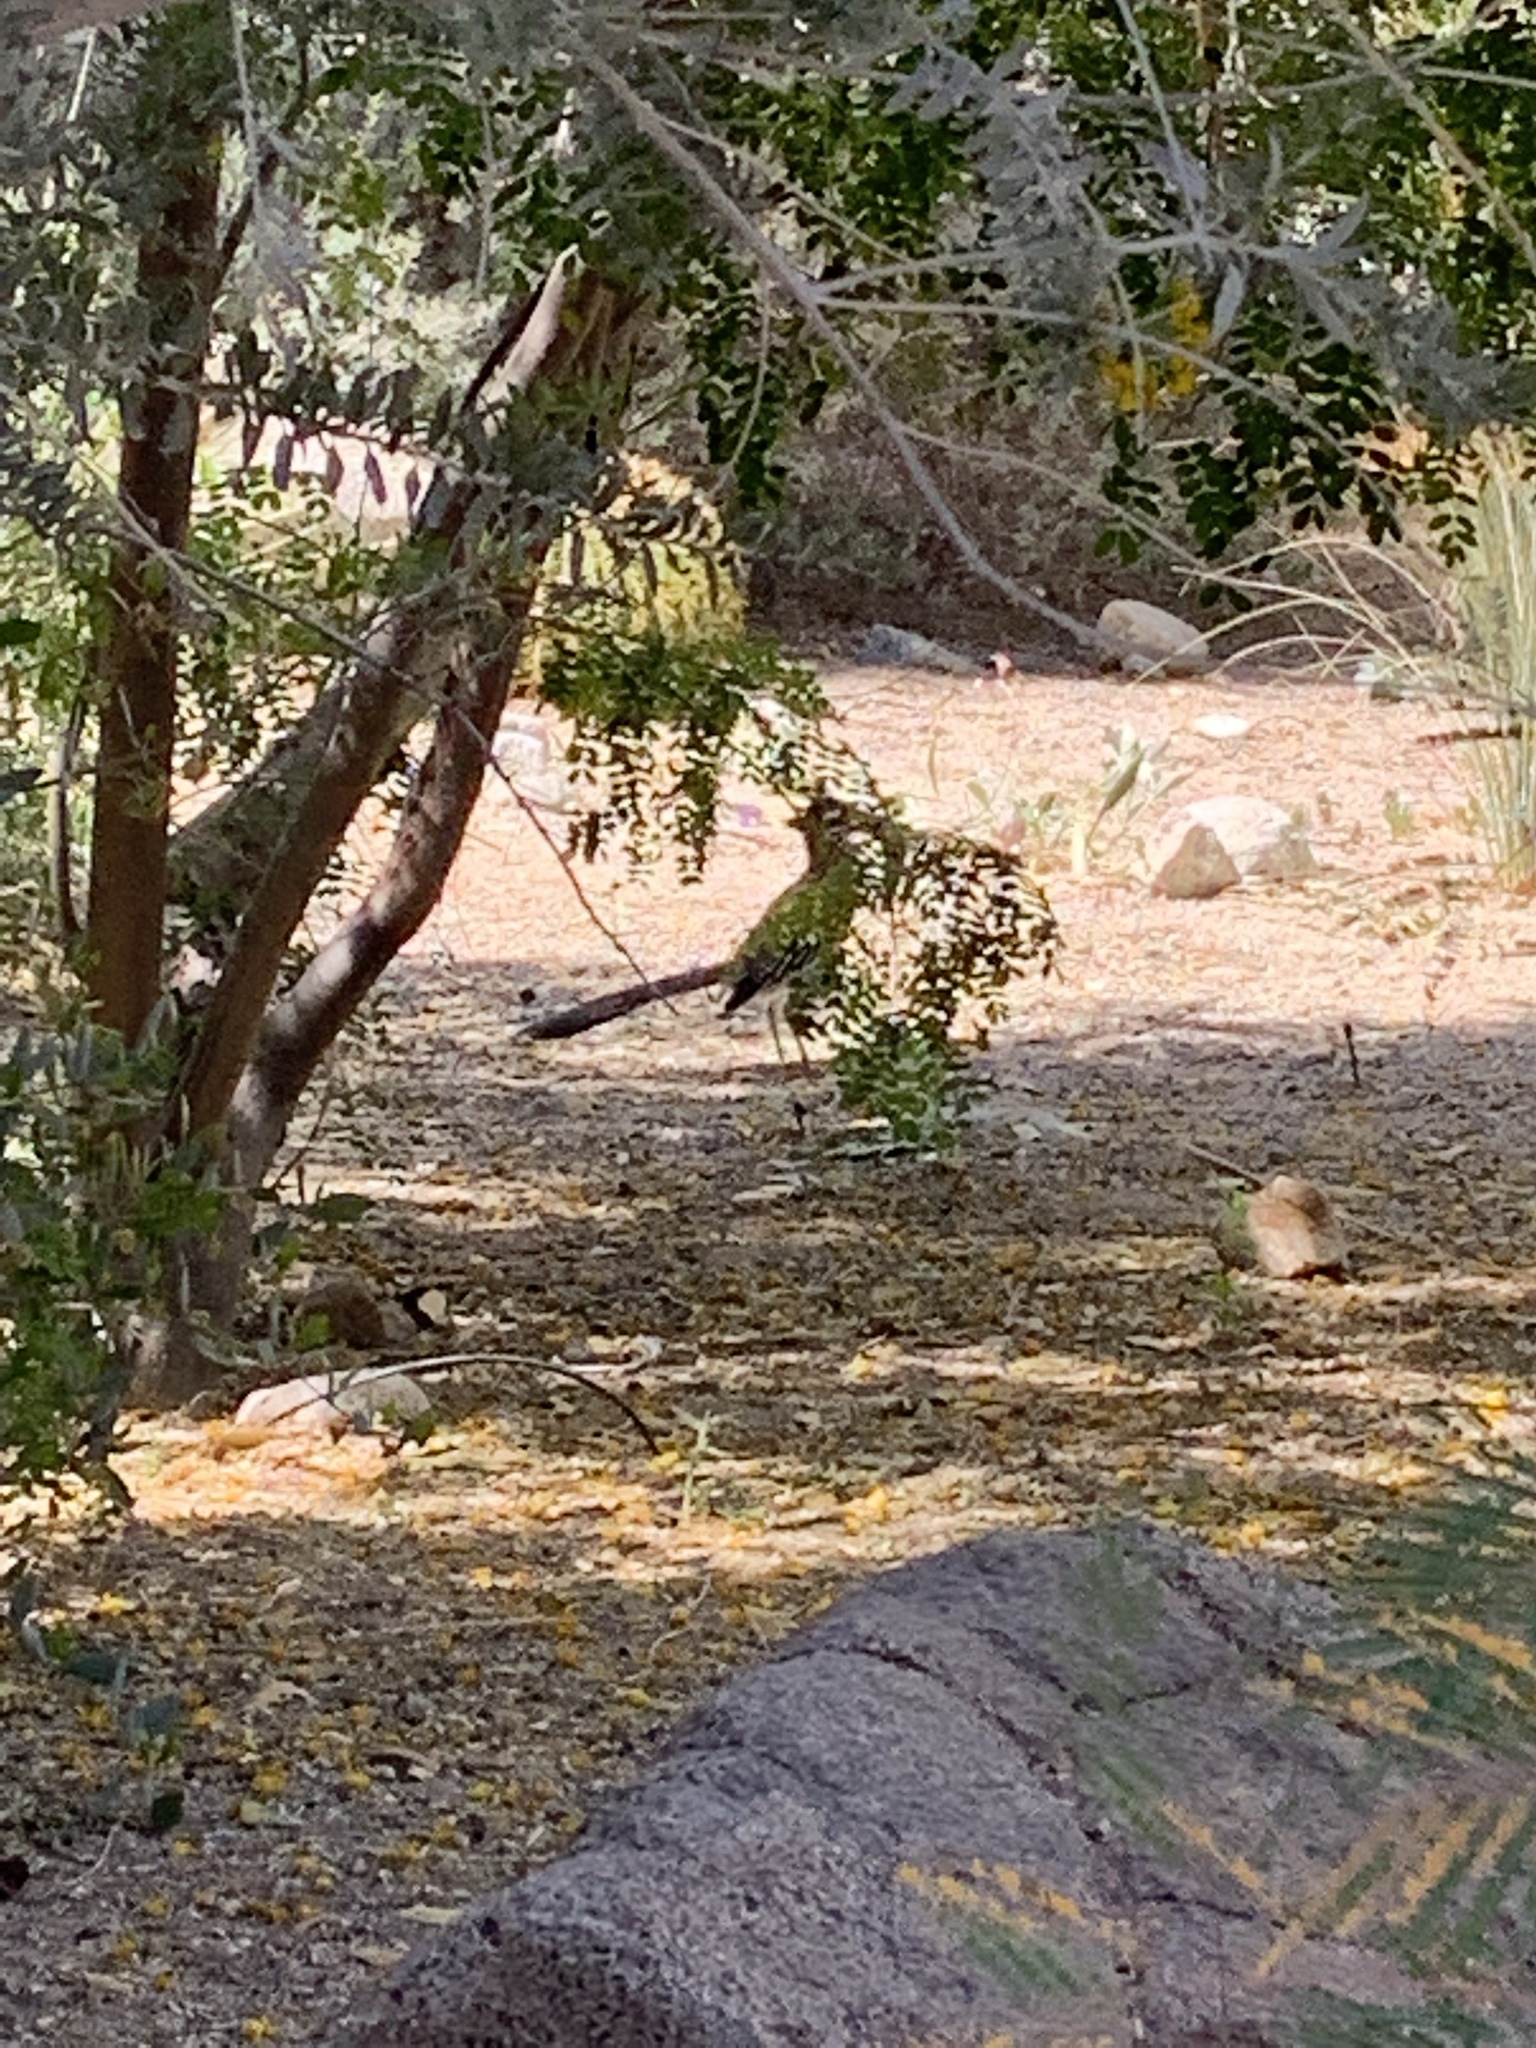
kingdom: Animalia
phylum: Chordata
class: Aves
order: Cuculiformes
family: Cuculidae
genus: Geococcyx
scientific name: Geococcyx californianus
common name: Greater roadrunner
